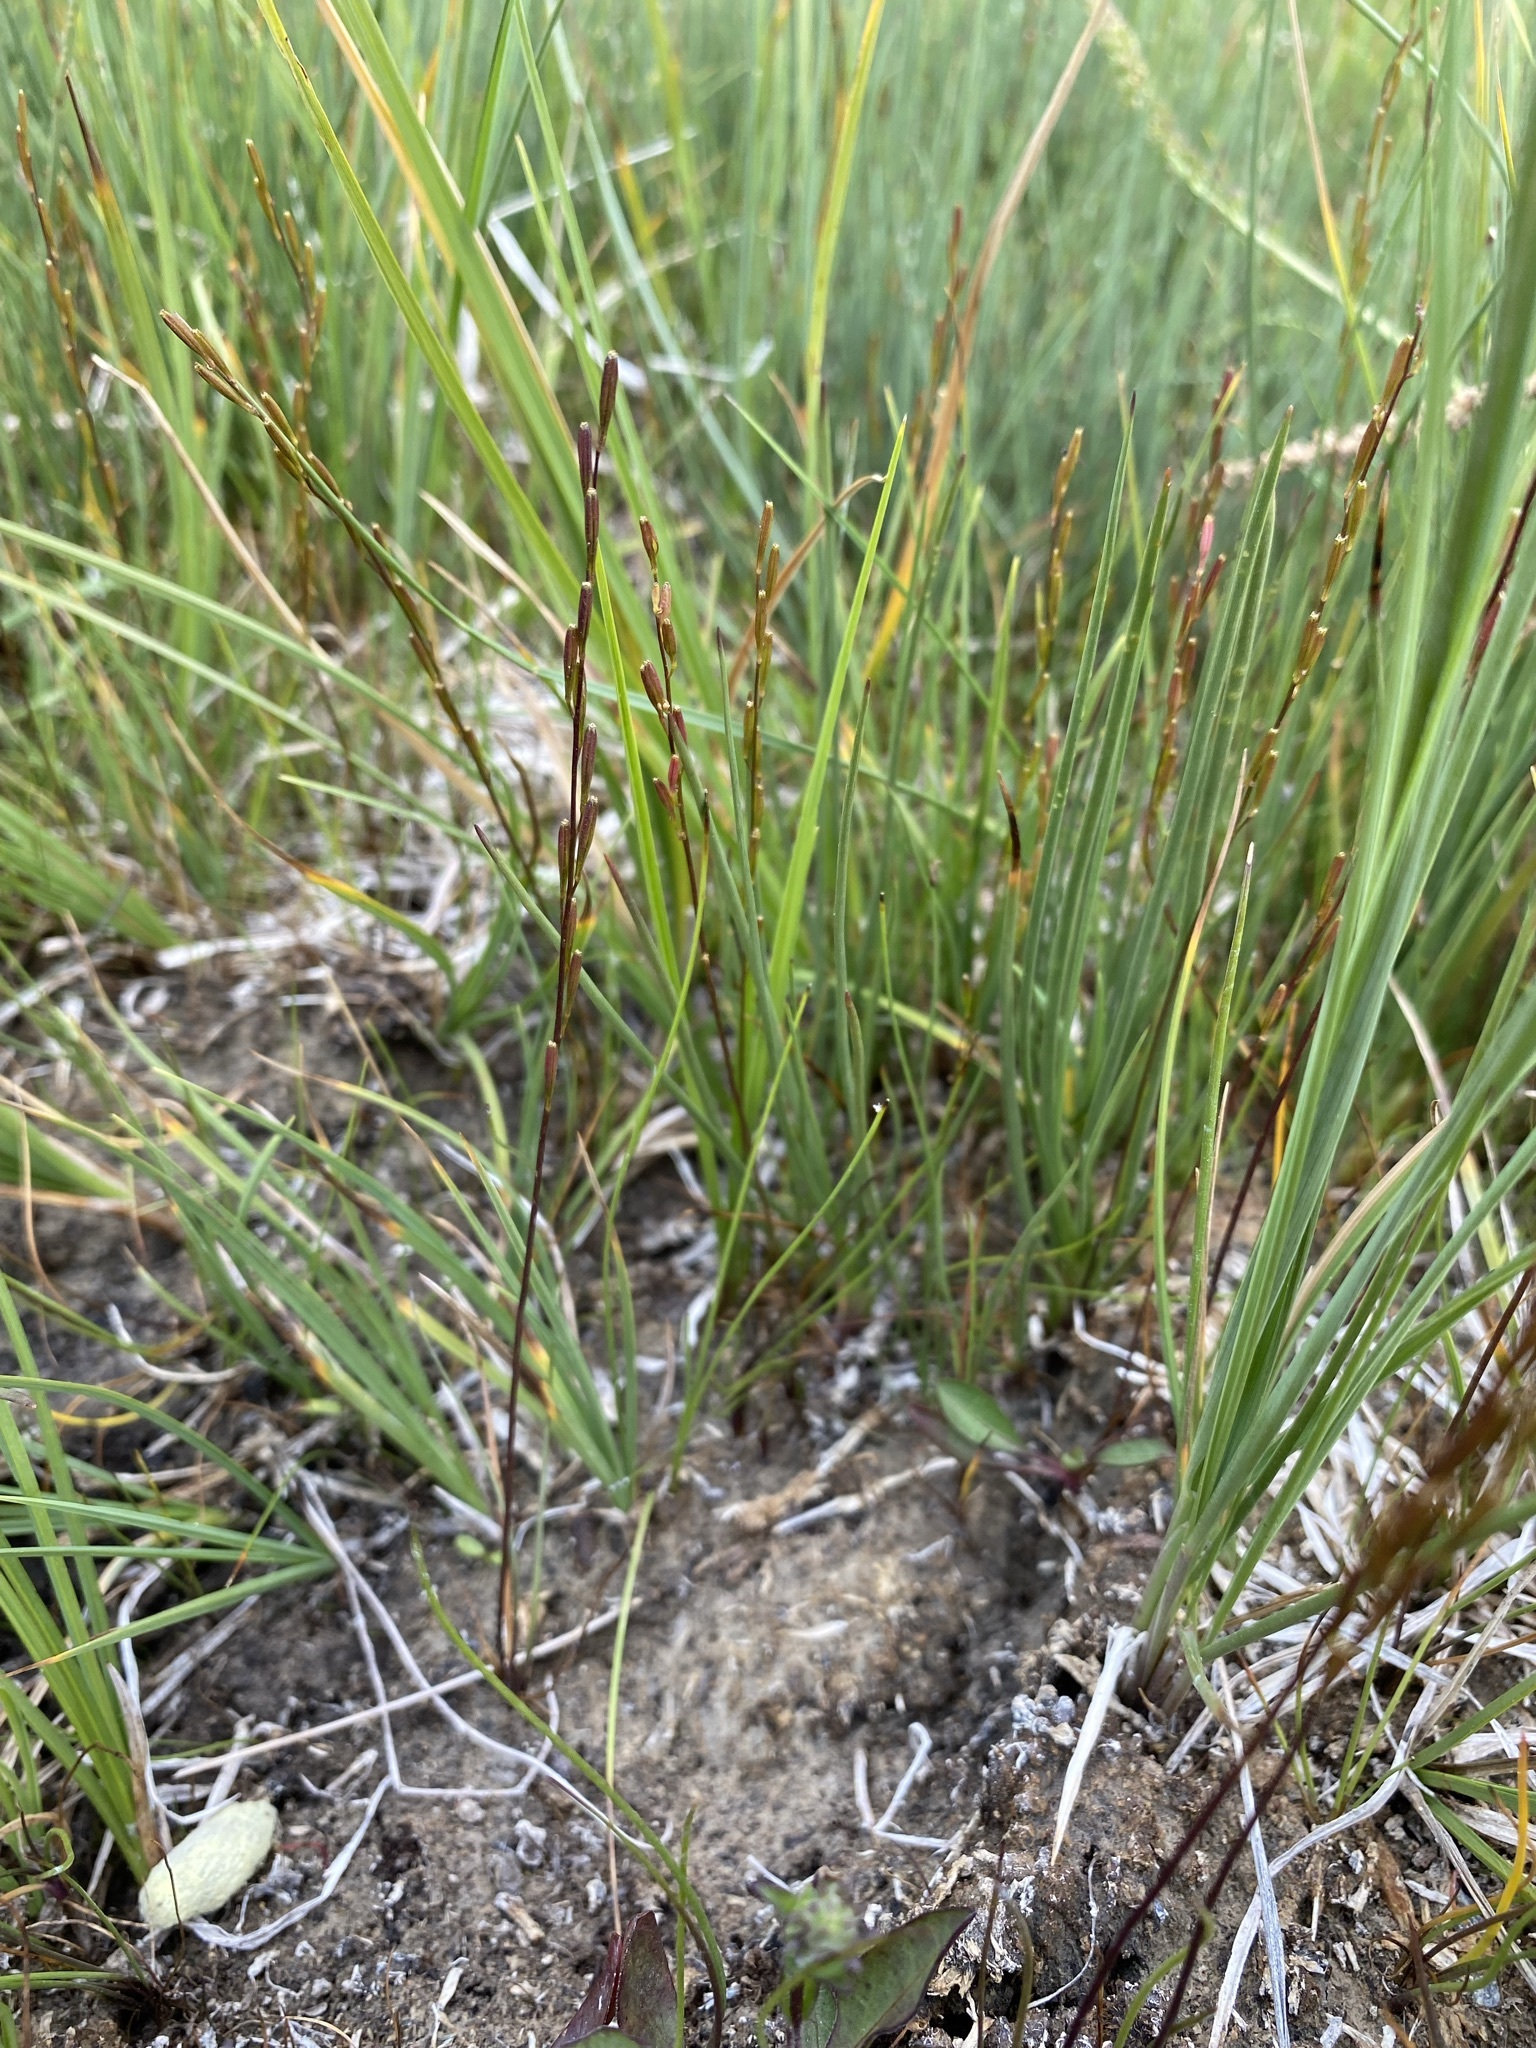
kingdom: Plantae
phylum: Tracheophyta
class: Liliopsida
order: Alismatales
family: Juncaginaceae
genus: Triglochin
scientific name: Triglochin palustris
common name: Marsh arrowgrass
